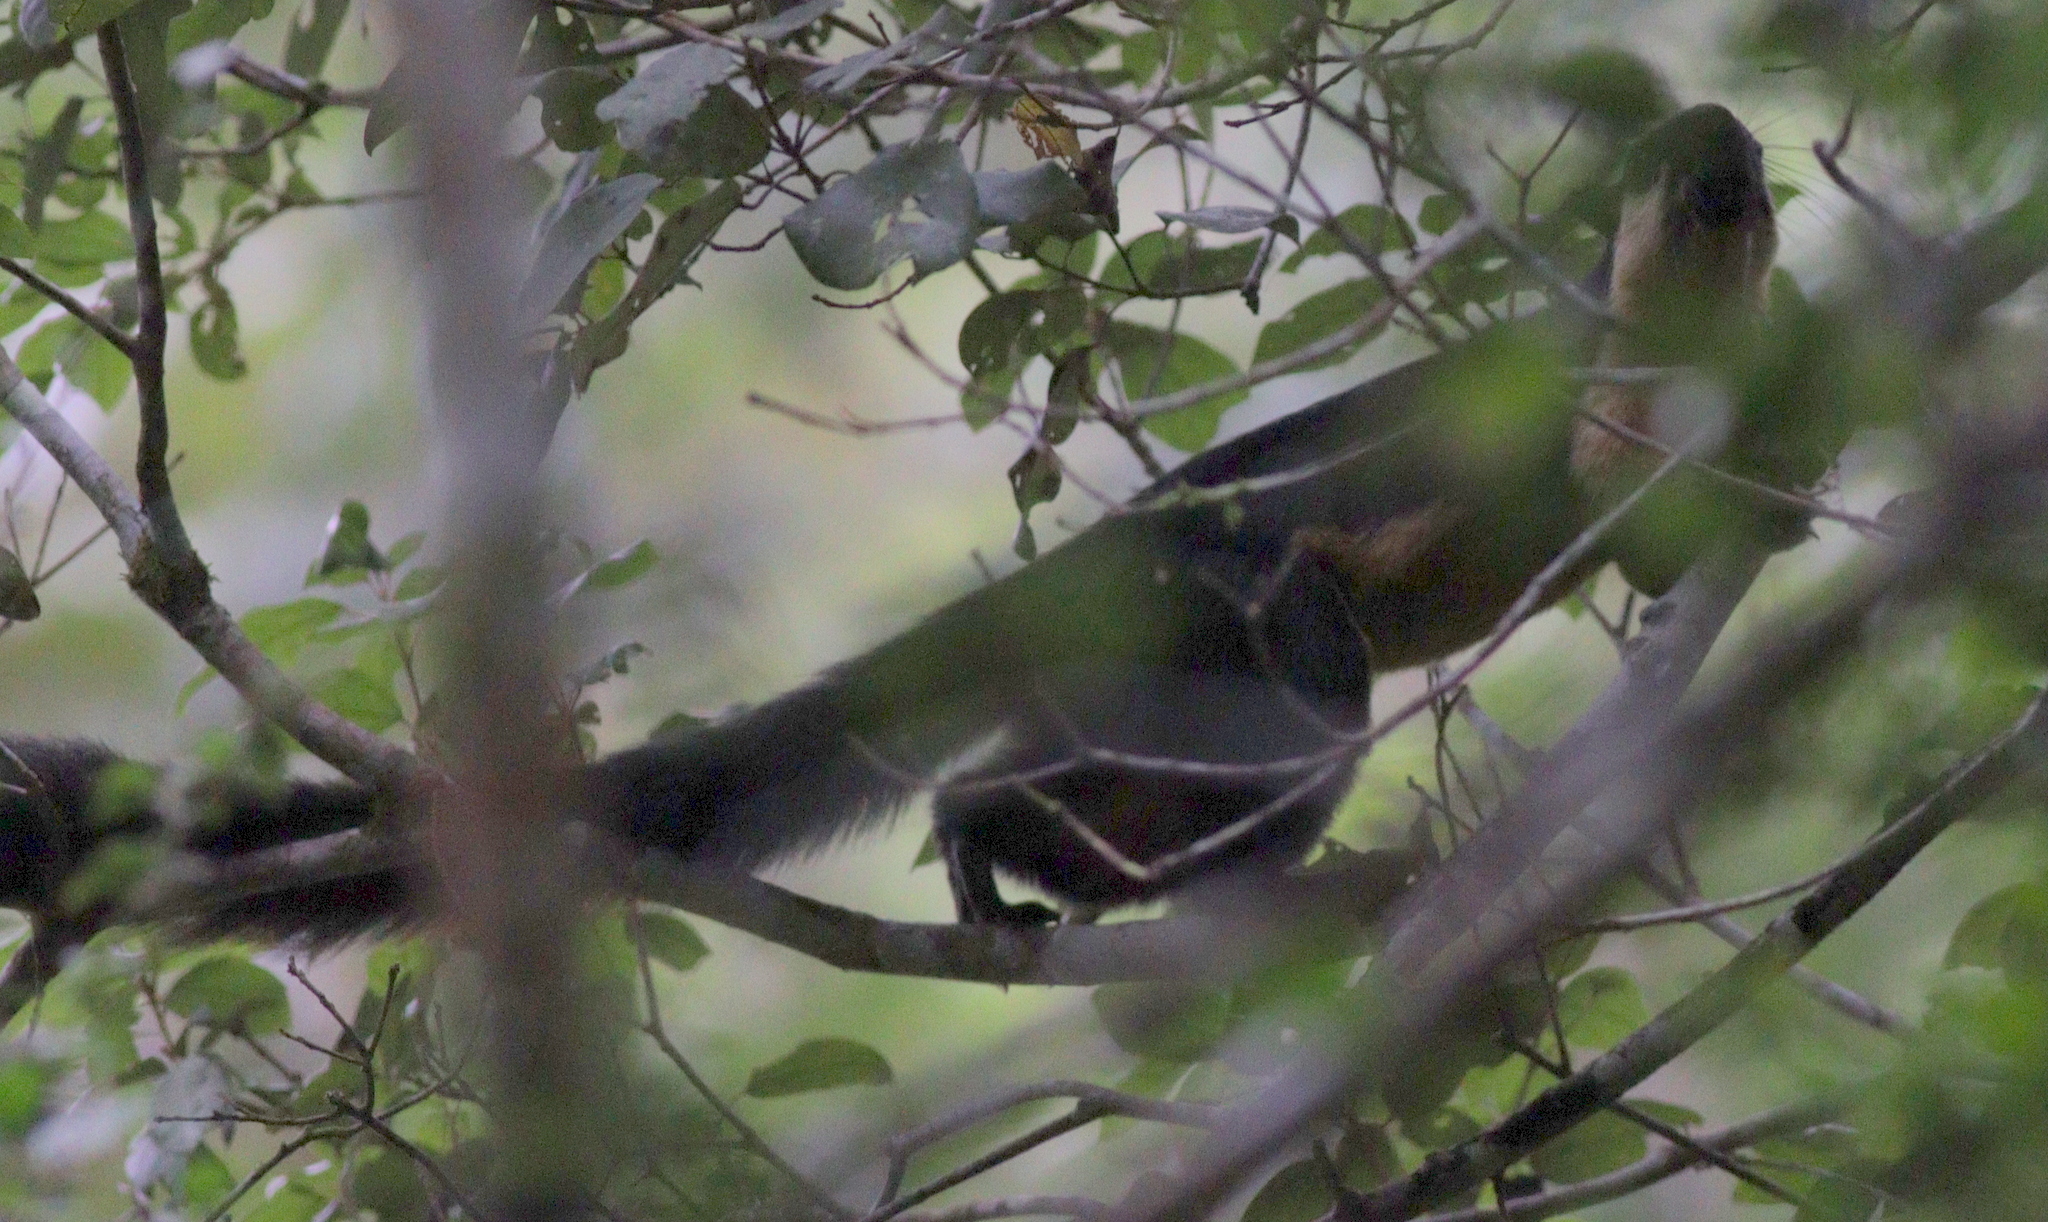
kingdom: Animalia
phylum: Chordata
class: Mammalia
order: Rodentia
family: Sciuridae
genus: Ratufa
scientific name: Ratufa bicolor
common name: Black giant squirrel
